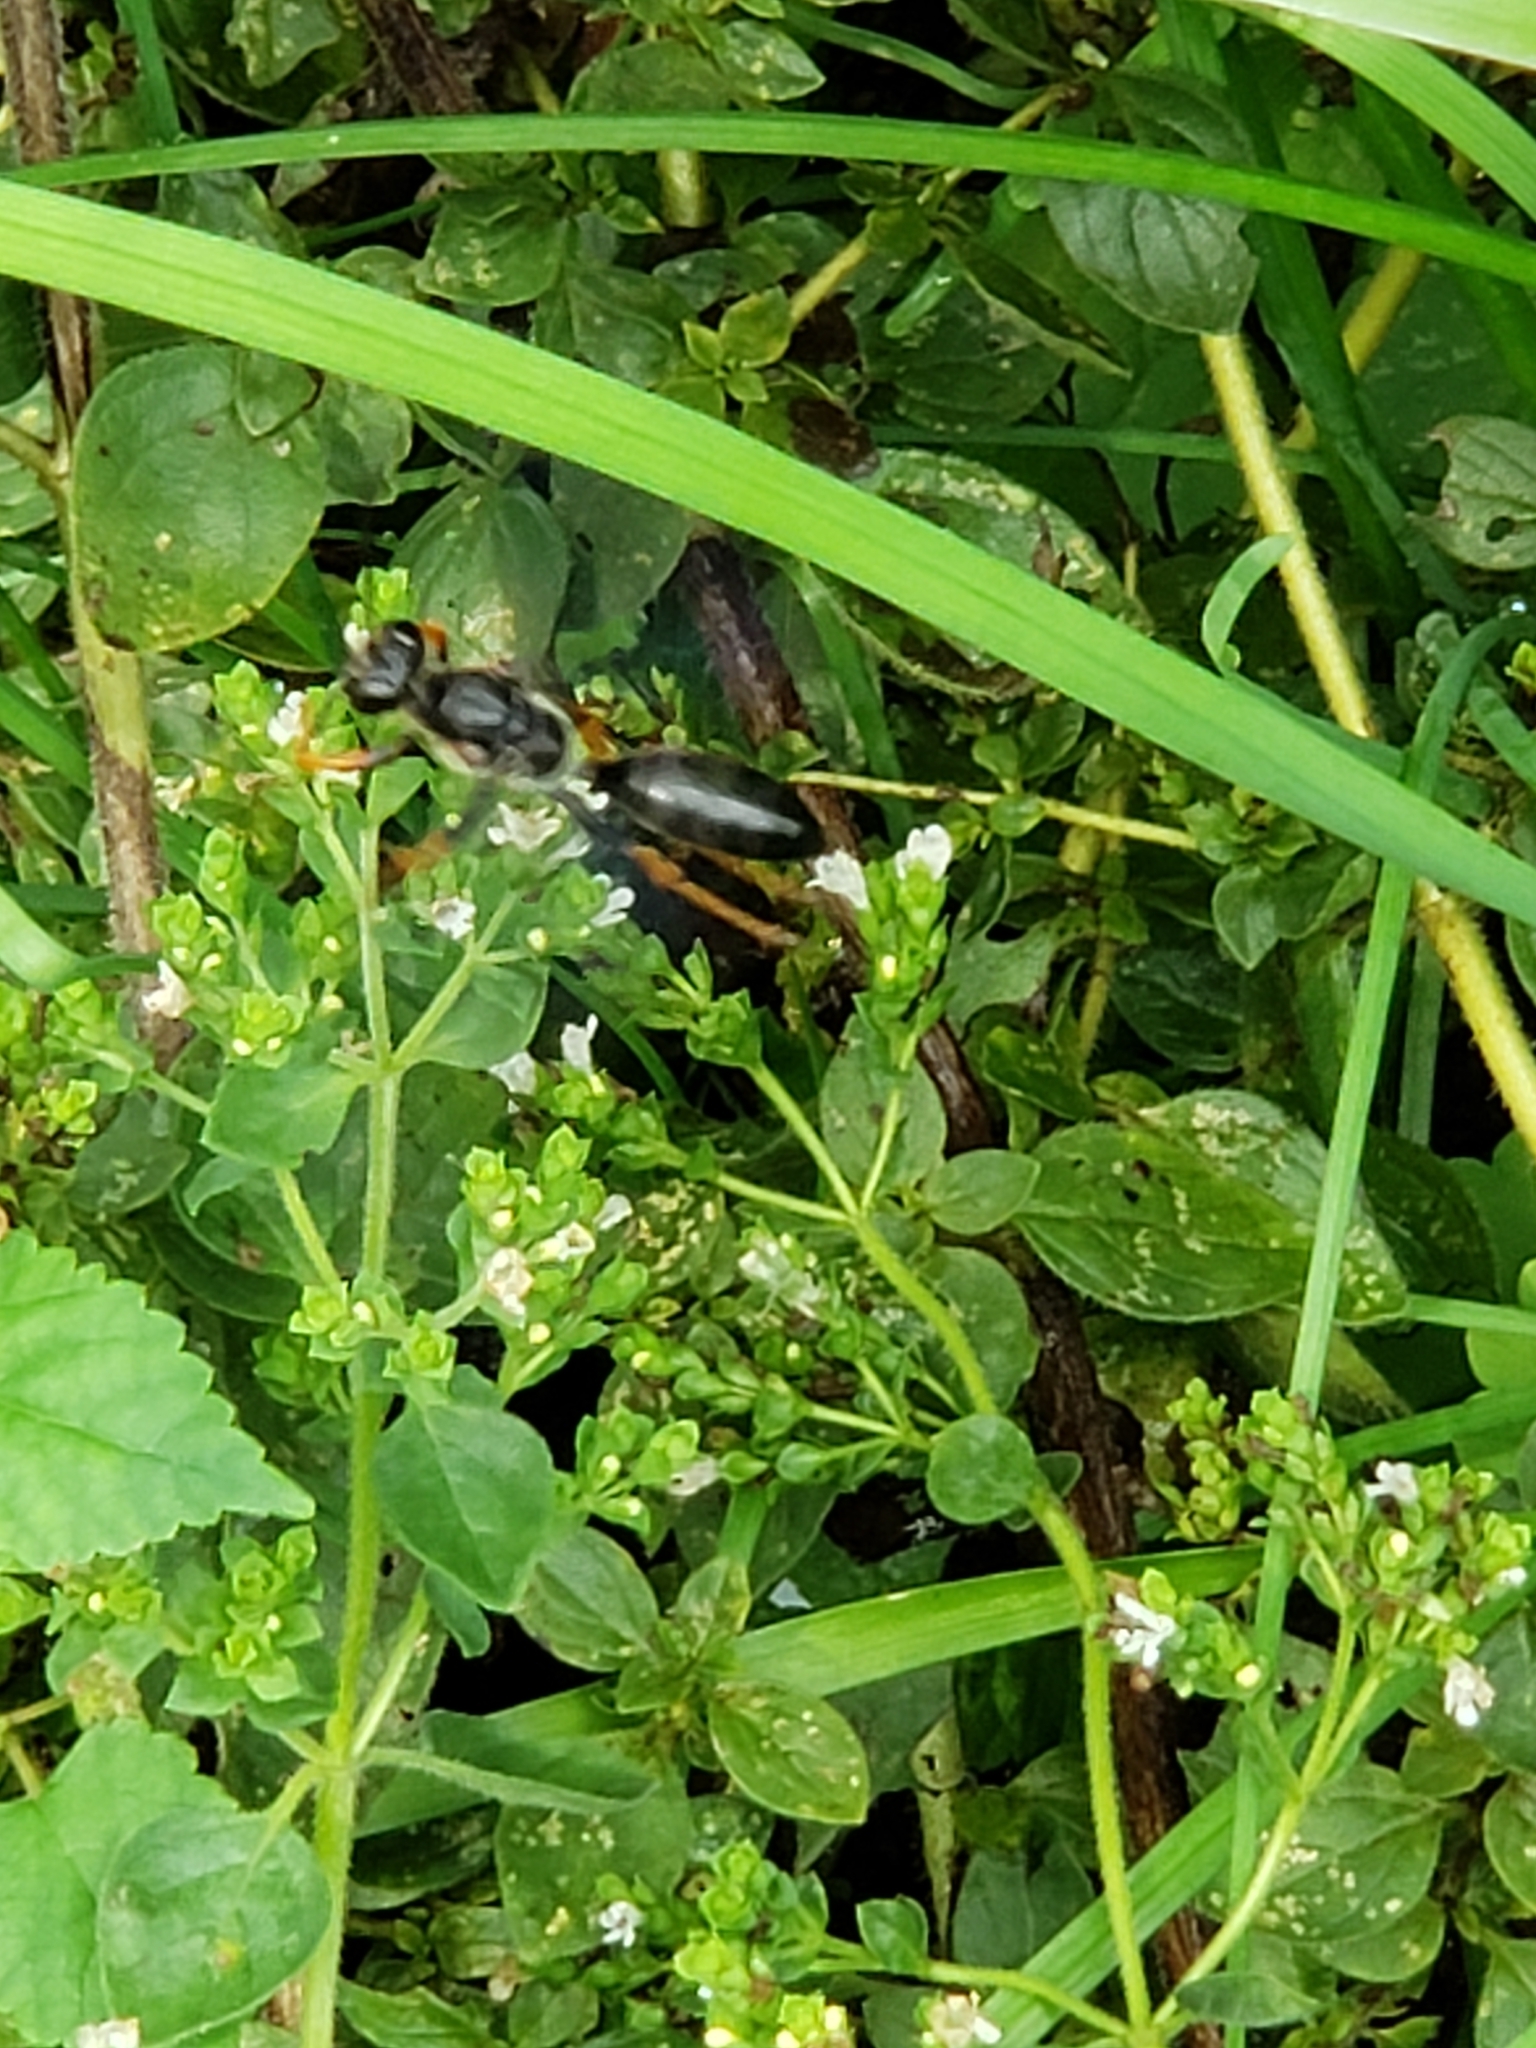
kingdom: Animalia
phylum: Arthropoda
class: Insecta
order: Hymenoptera
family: Sphecidae
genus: Sphex
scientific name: Sphex nudus
